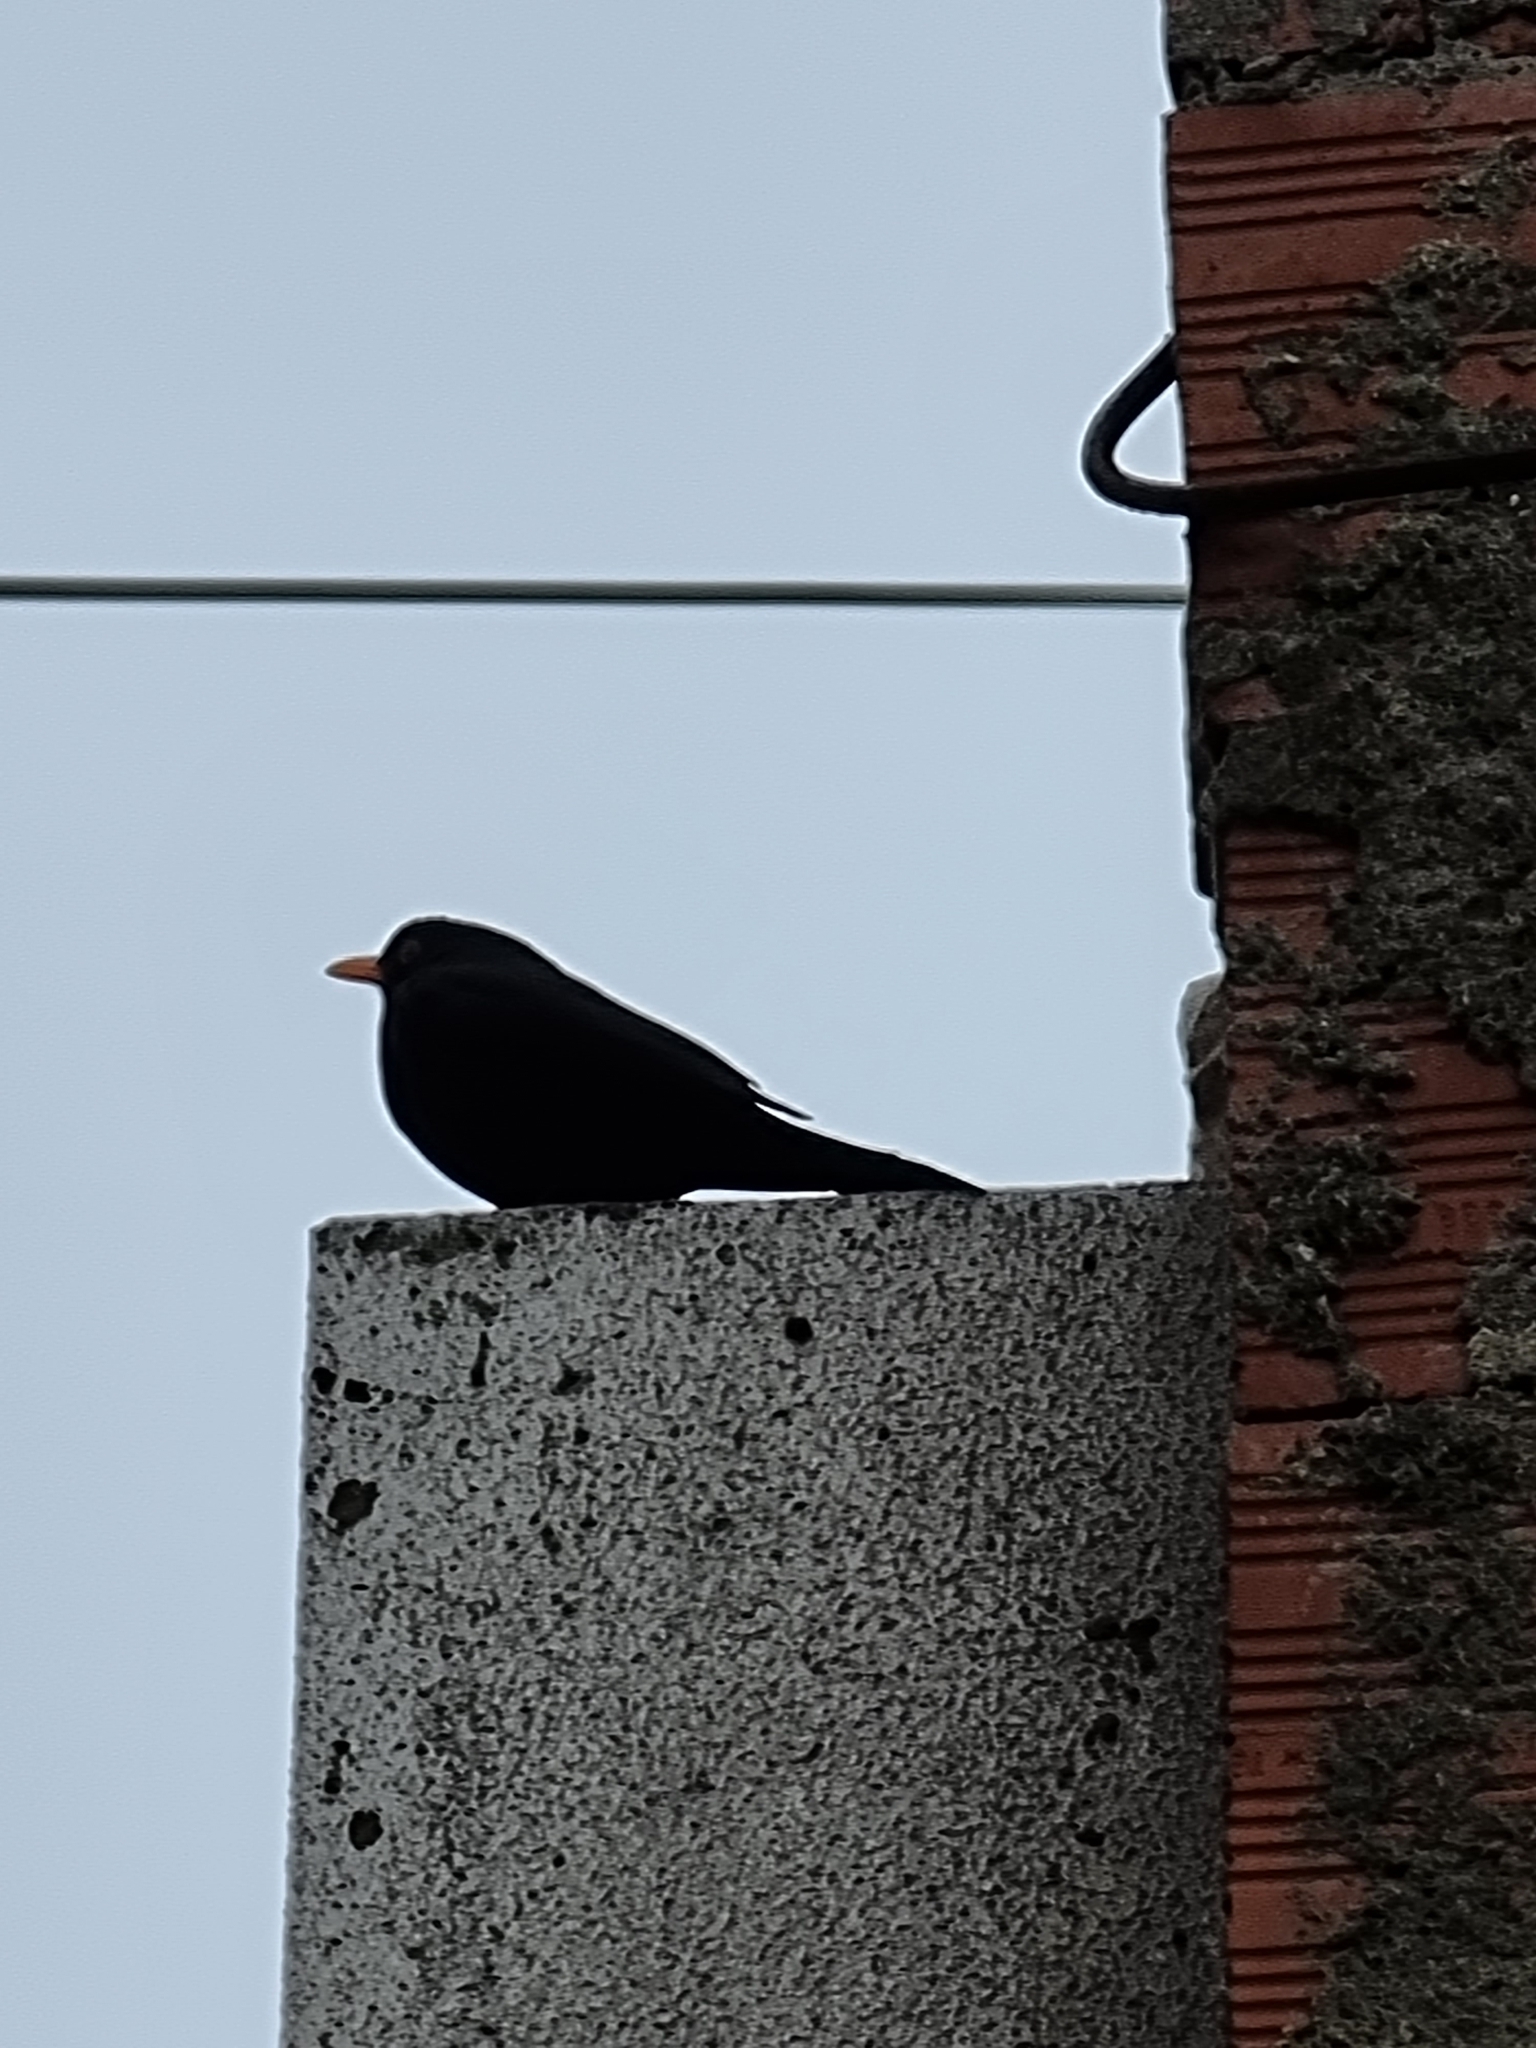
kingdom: Animalia
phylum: Chordata
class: Aves
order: Passeriformes
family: Turdidae
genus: Turdus
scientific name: Turdus merula
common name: Common blackbird
